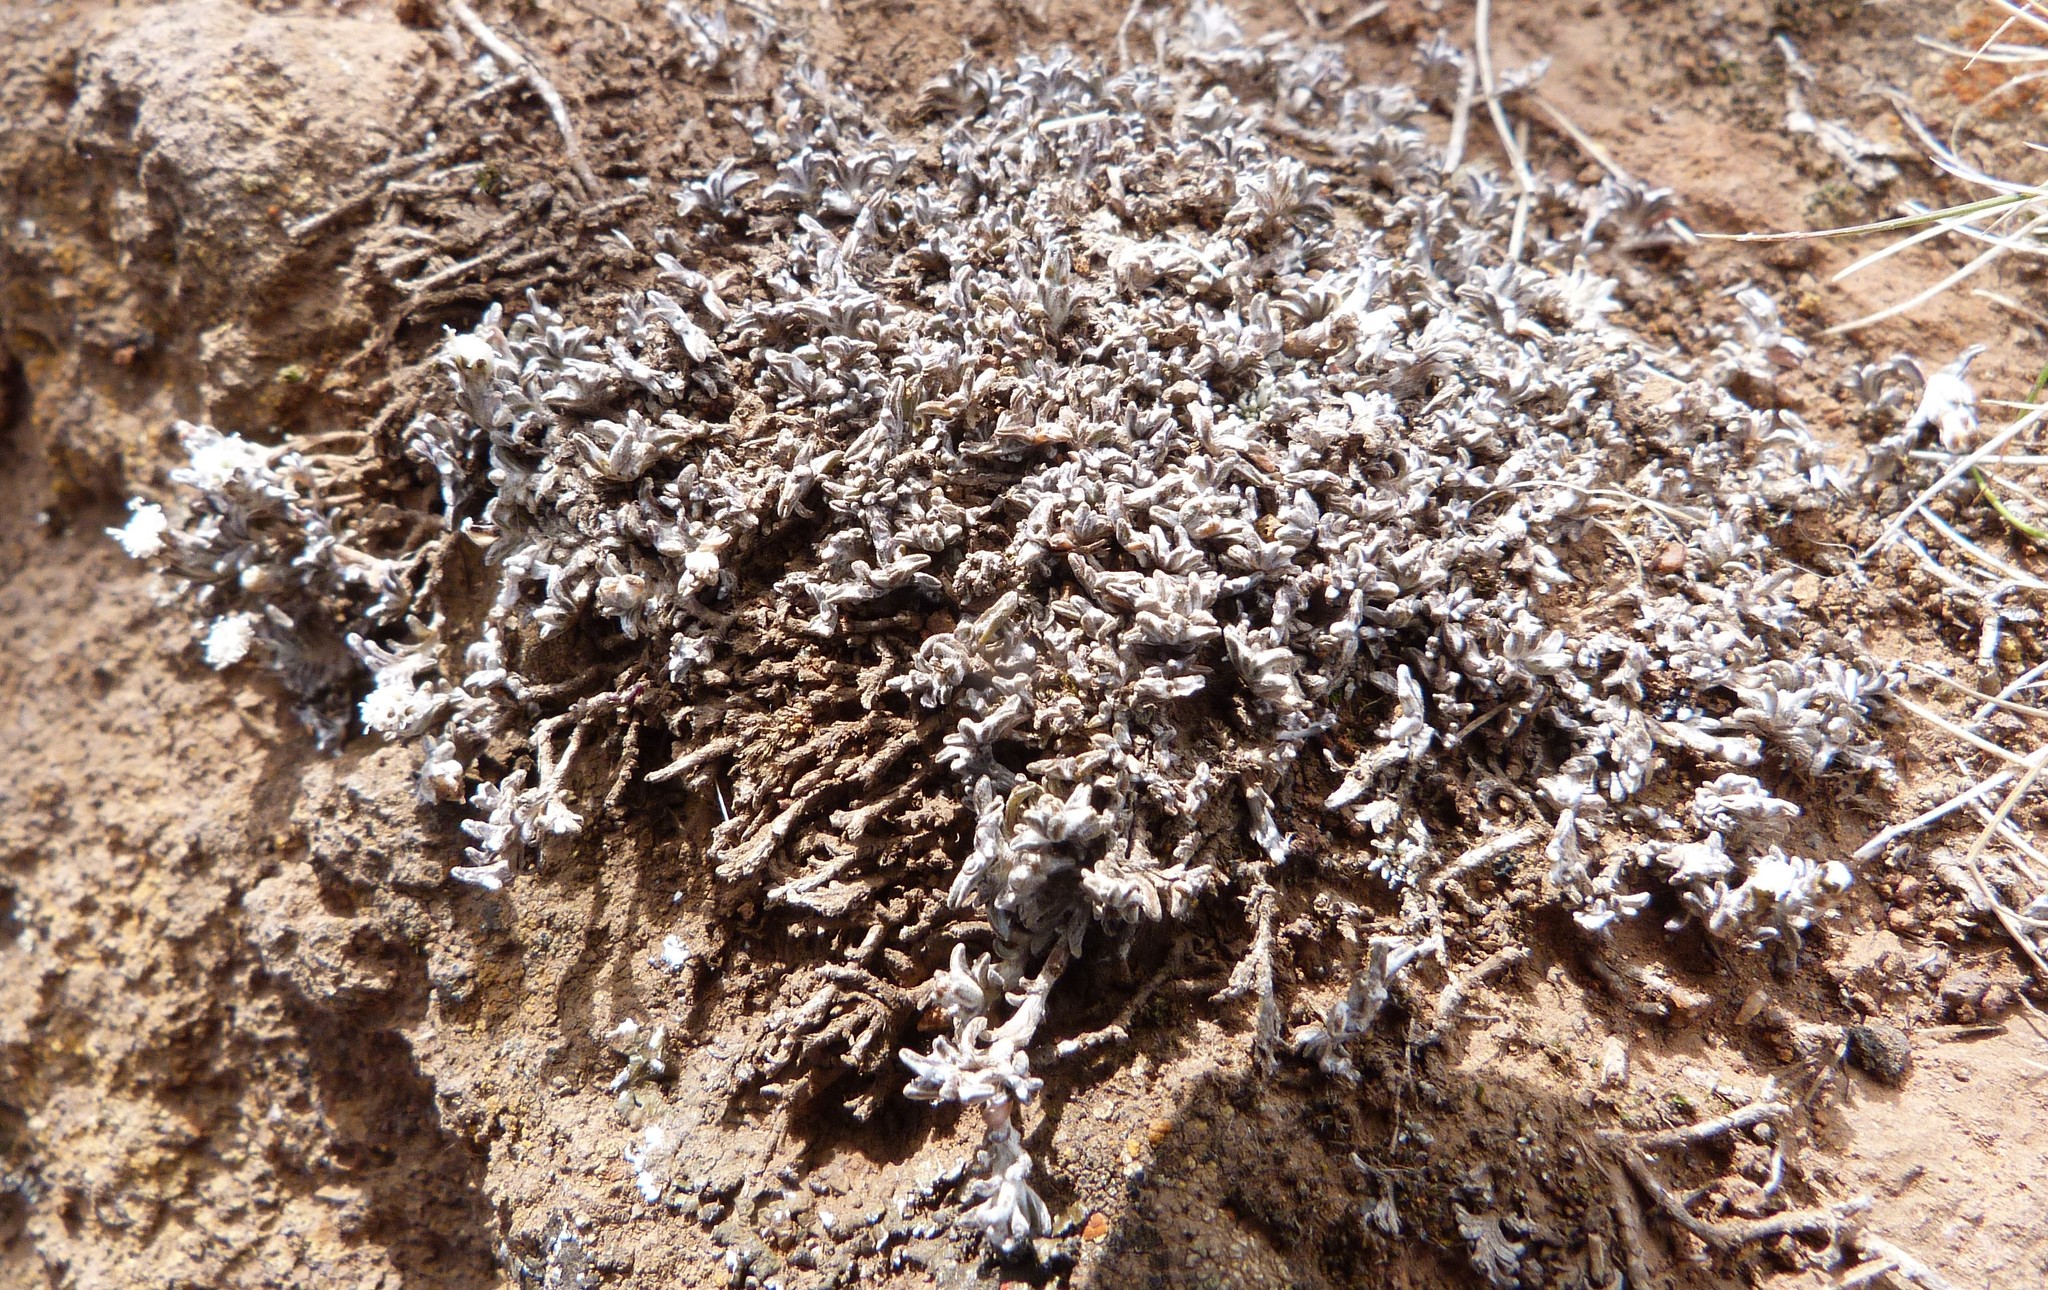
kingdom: Plantae
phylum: Tracheophyta
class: Magnoliopsida
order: Asterales
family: Asteraceae
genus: Raoulia
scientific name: Raoulia monroi
